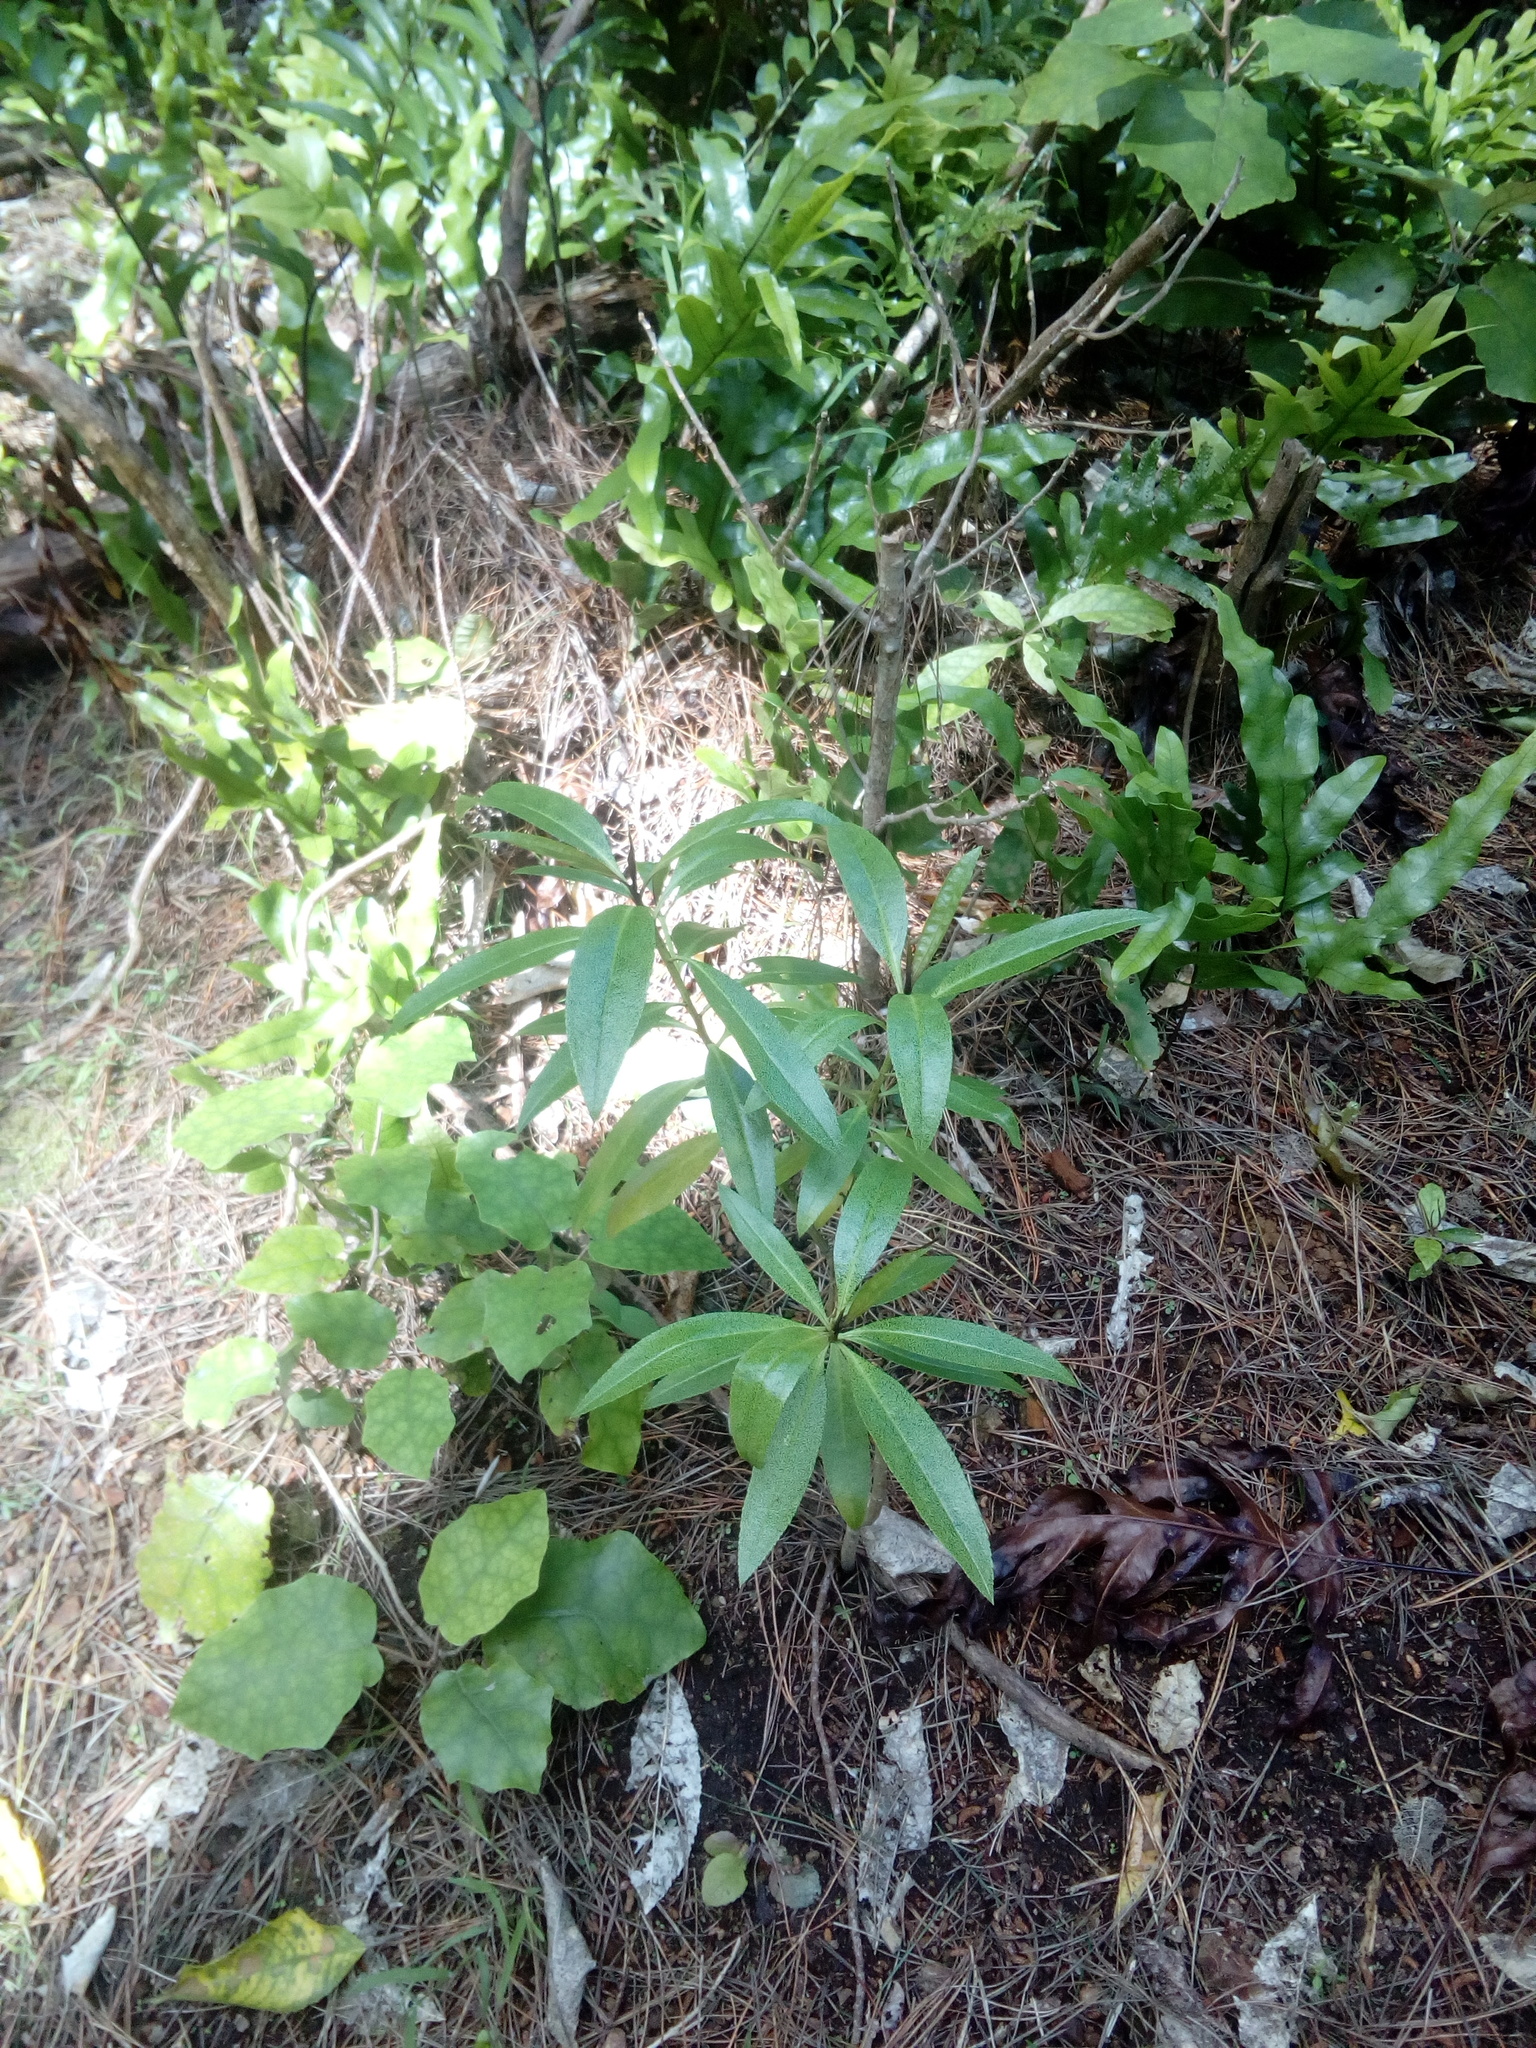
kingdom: Plantae
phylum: Tracheophyta
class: Magnoliopsida
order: Lamiales
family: Scrophulariaceae
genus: Myoporum
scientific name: Myoporum laetum
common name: Ngaio tree
